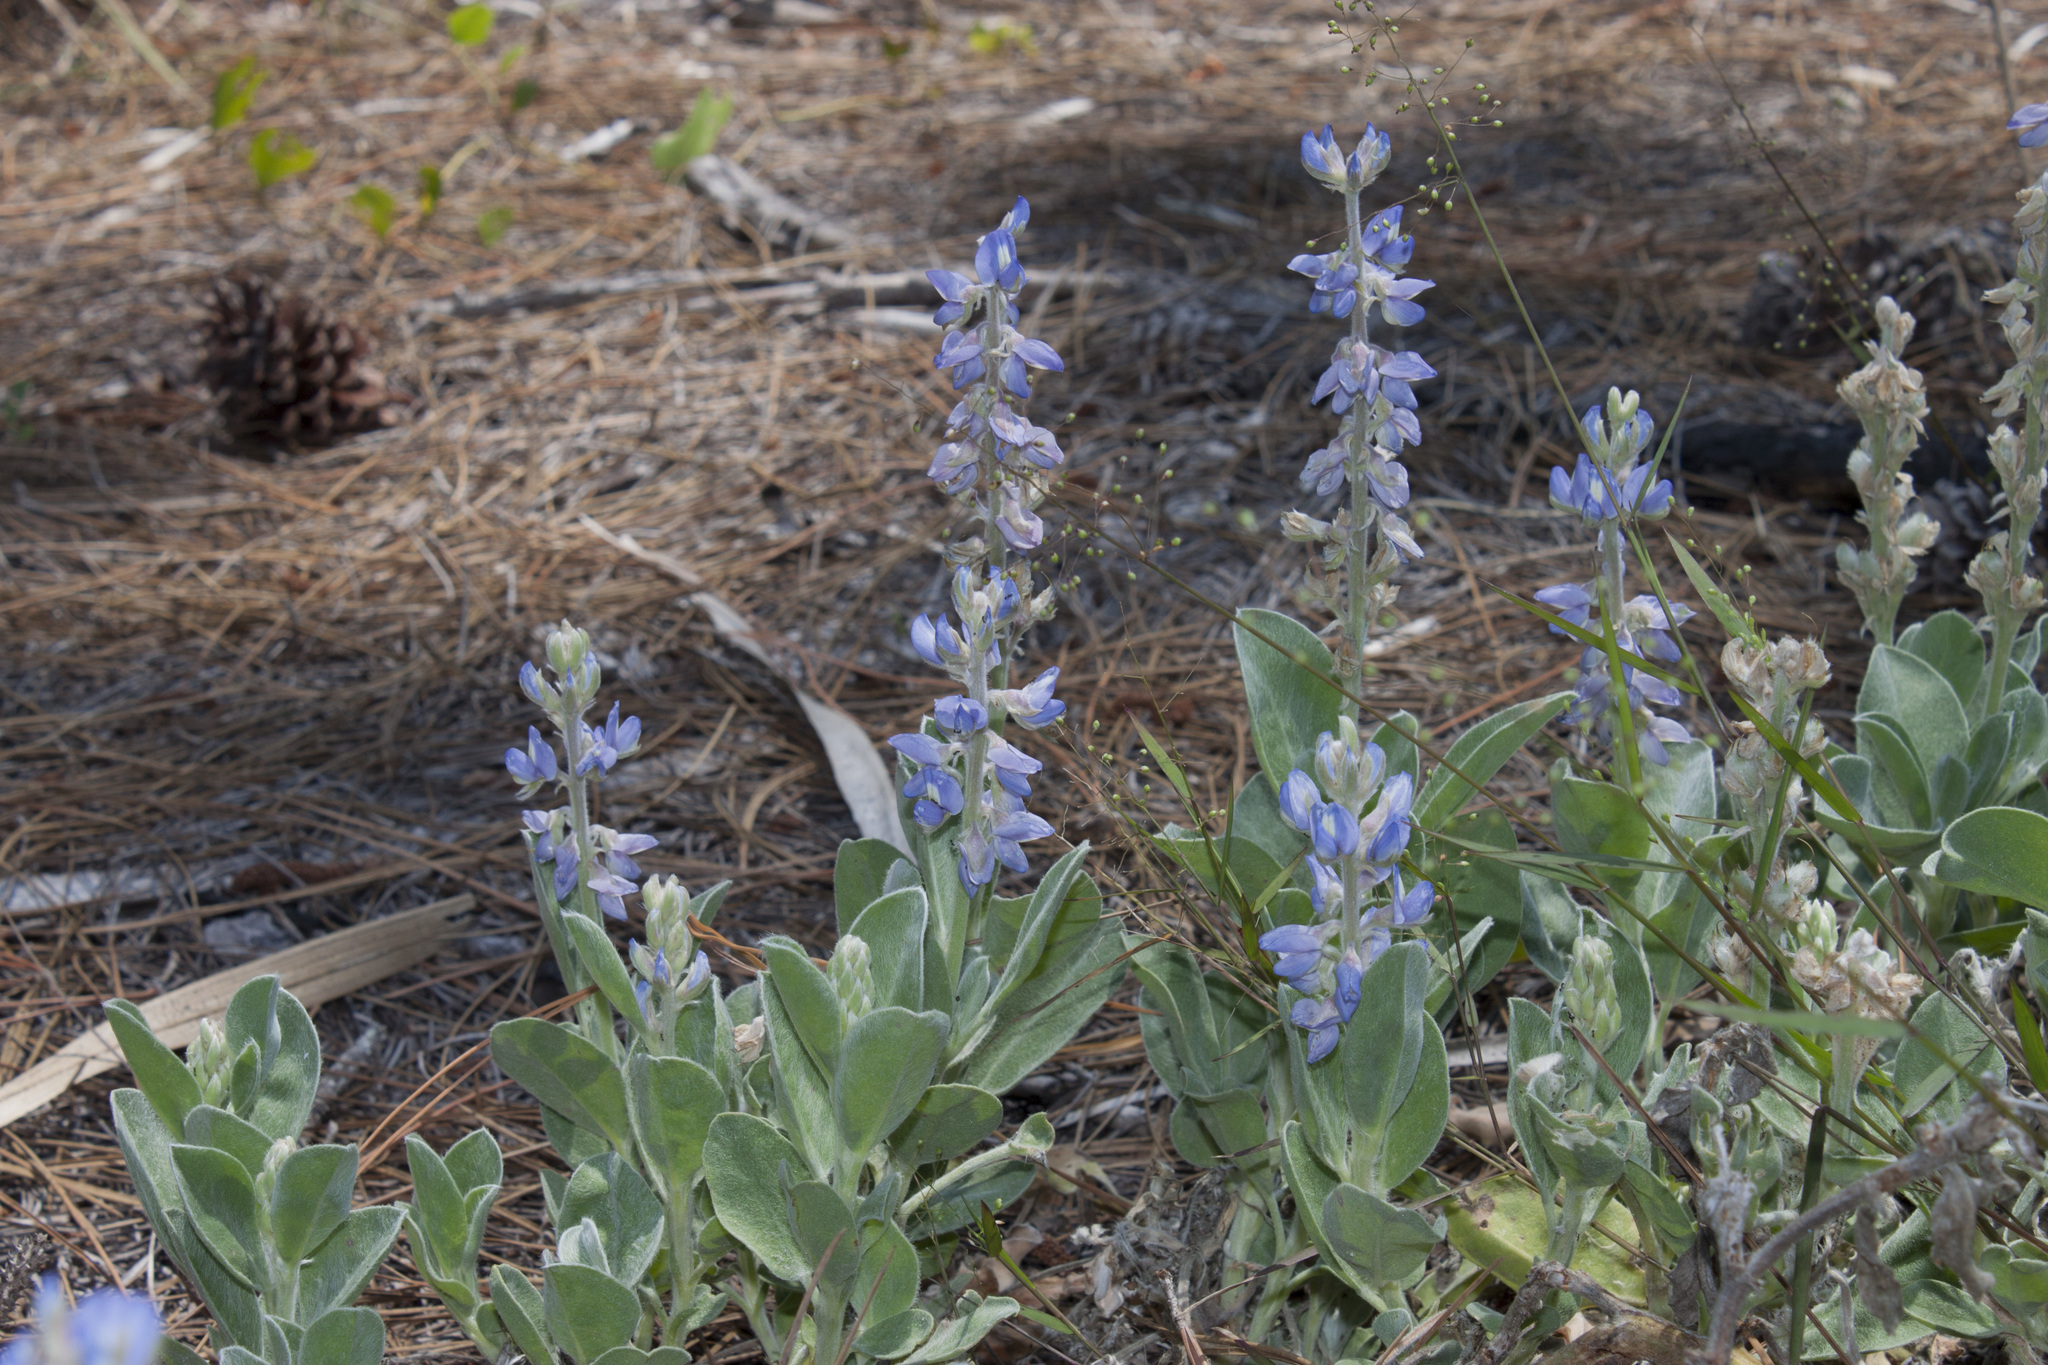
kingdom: Plantae
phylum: Tracheophyta
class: Magnoliopsida
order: Fabales
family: Fabaceae
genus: Lupinus
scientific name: Lupinus
